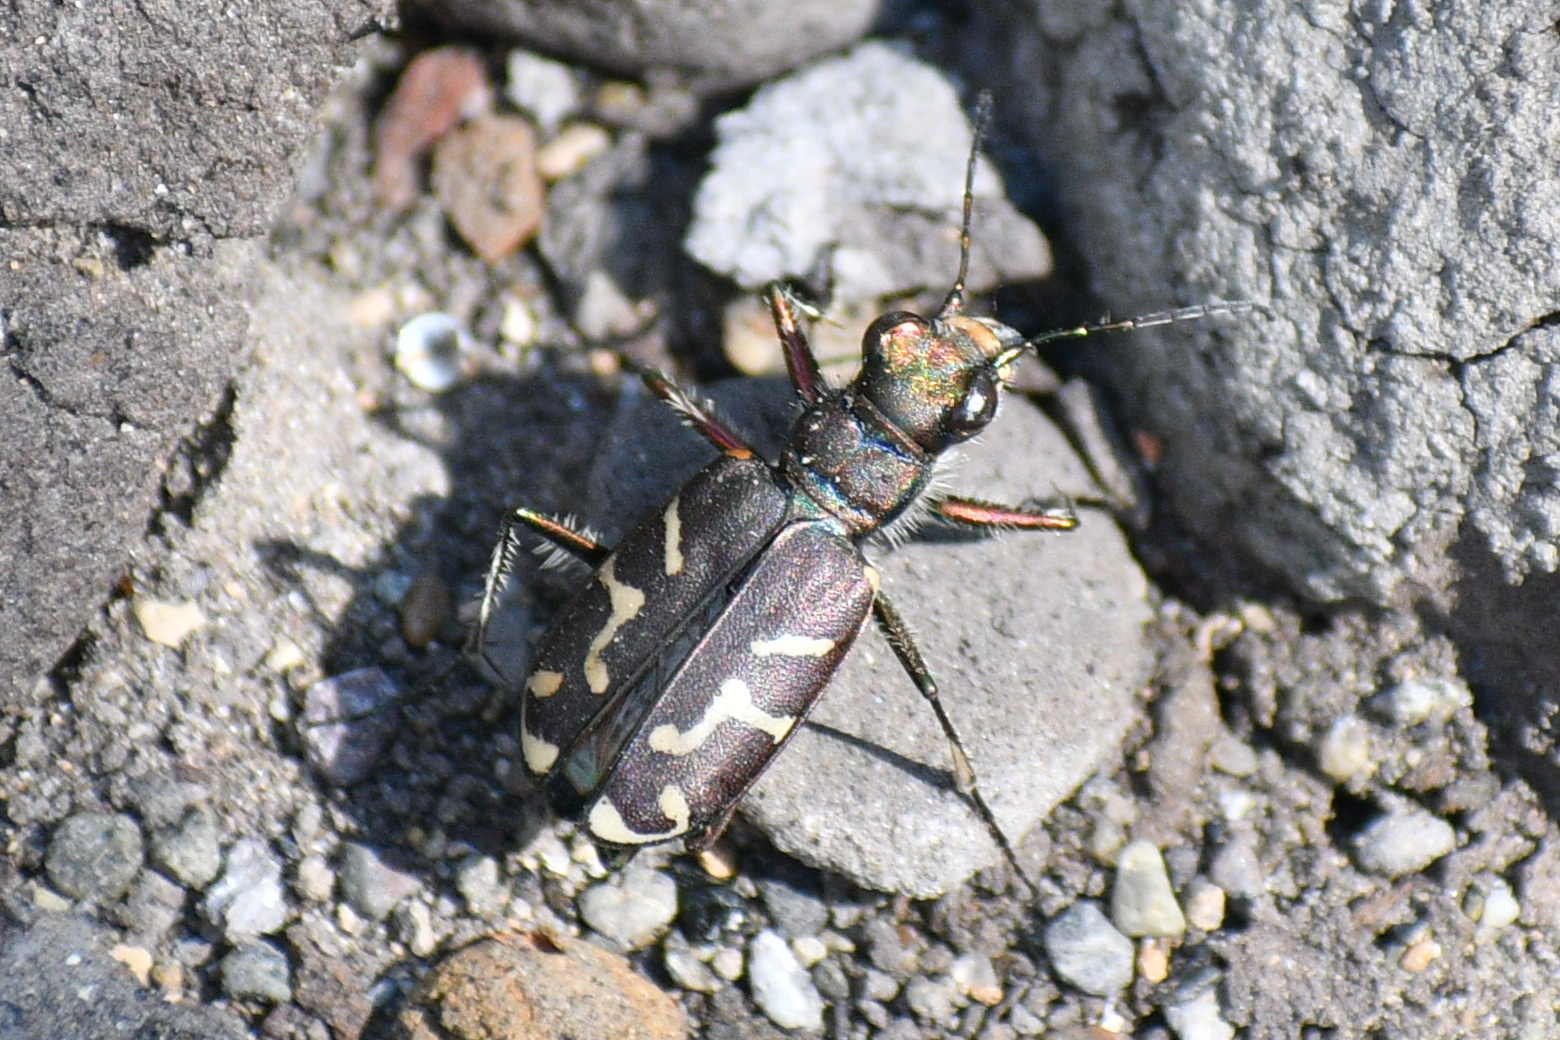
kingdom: Animalia
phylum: Arthropoda
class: Insecta
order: Coleoptera
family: Carabidae
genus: Cicindela
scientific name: Cicindela tranquebarica
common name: Oblique-lined tiger beetle
